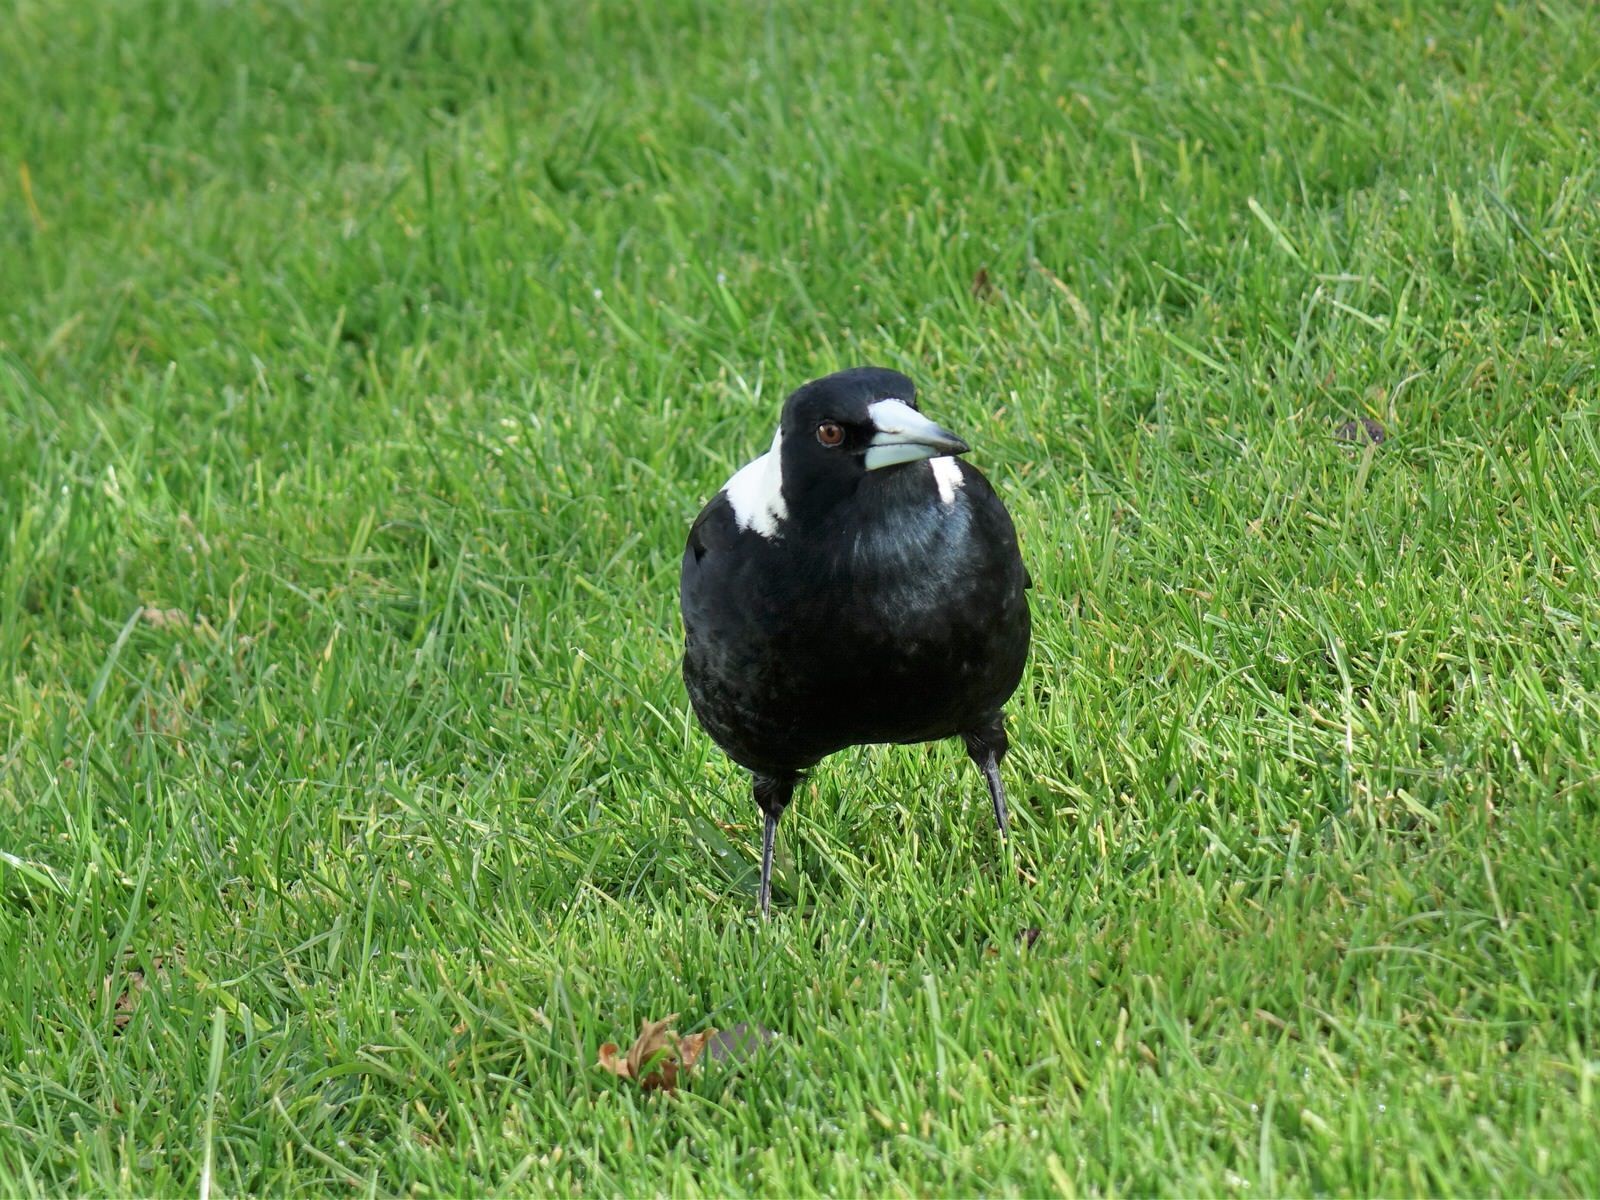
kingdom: Animalia
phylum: Chordata
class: Aves
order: Passeriformes
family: Cracticidae
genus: Gymnorhina
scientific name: Gymnorhina tibicen
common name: Australian magpie
